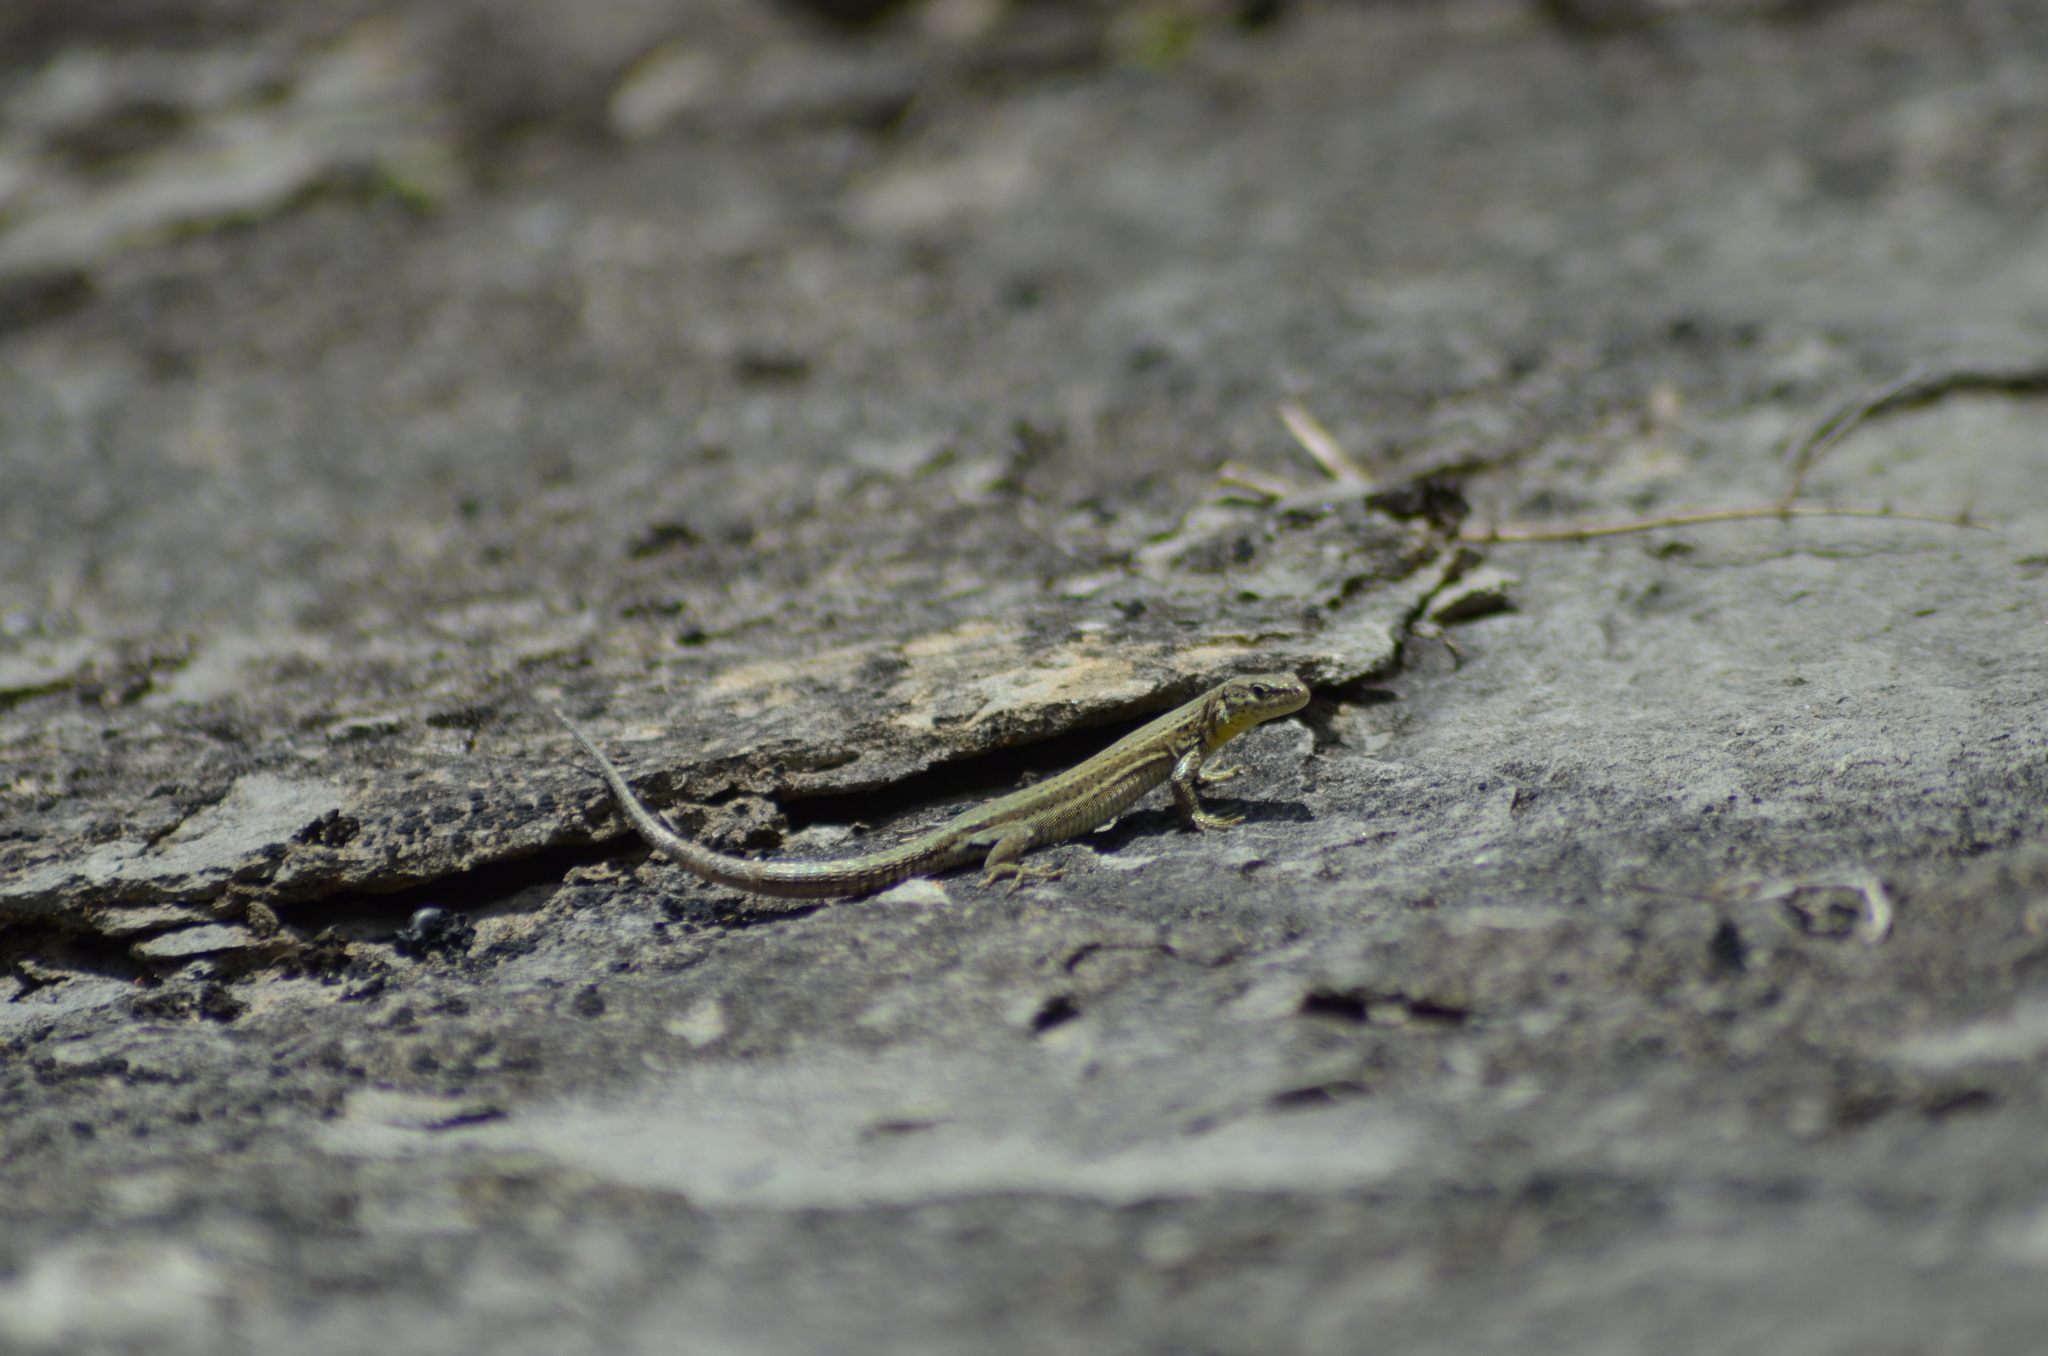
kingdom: Animalia
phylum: Chordata
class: Squamata
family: Lacertidae
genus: Podarcis
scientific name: Podarcis liolepis
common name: Catalonian wall lizard
